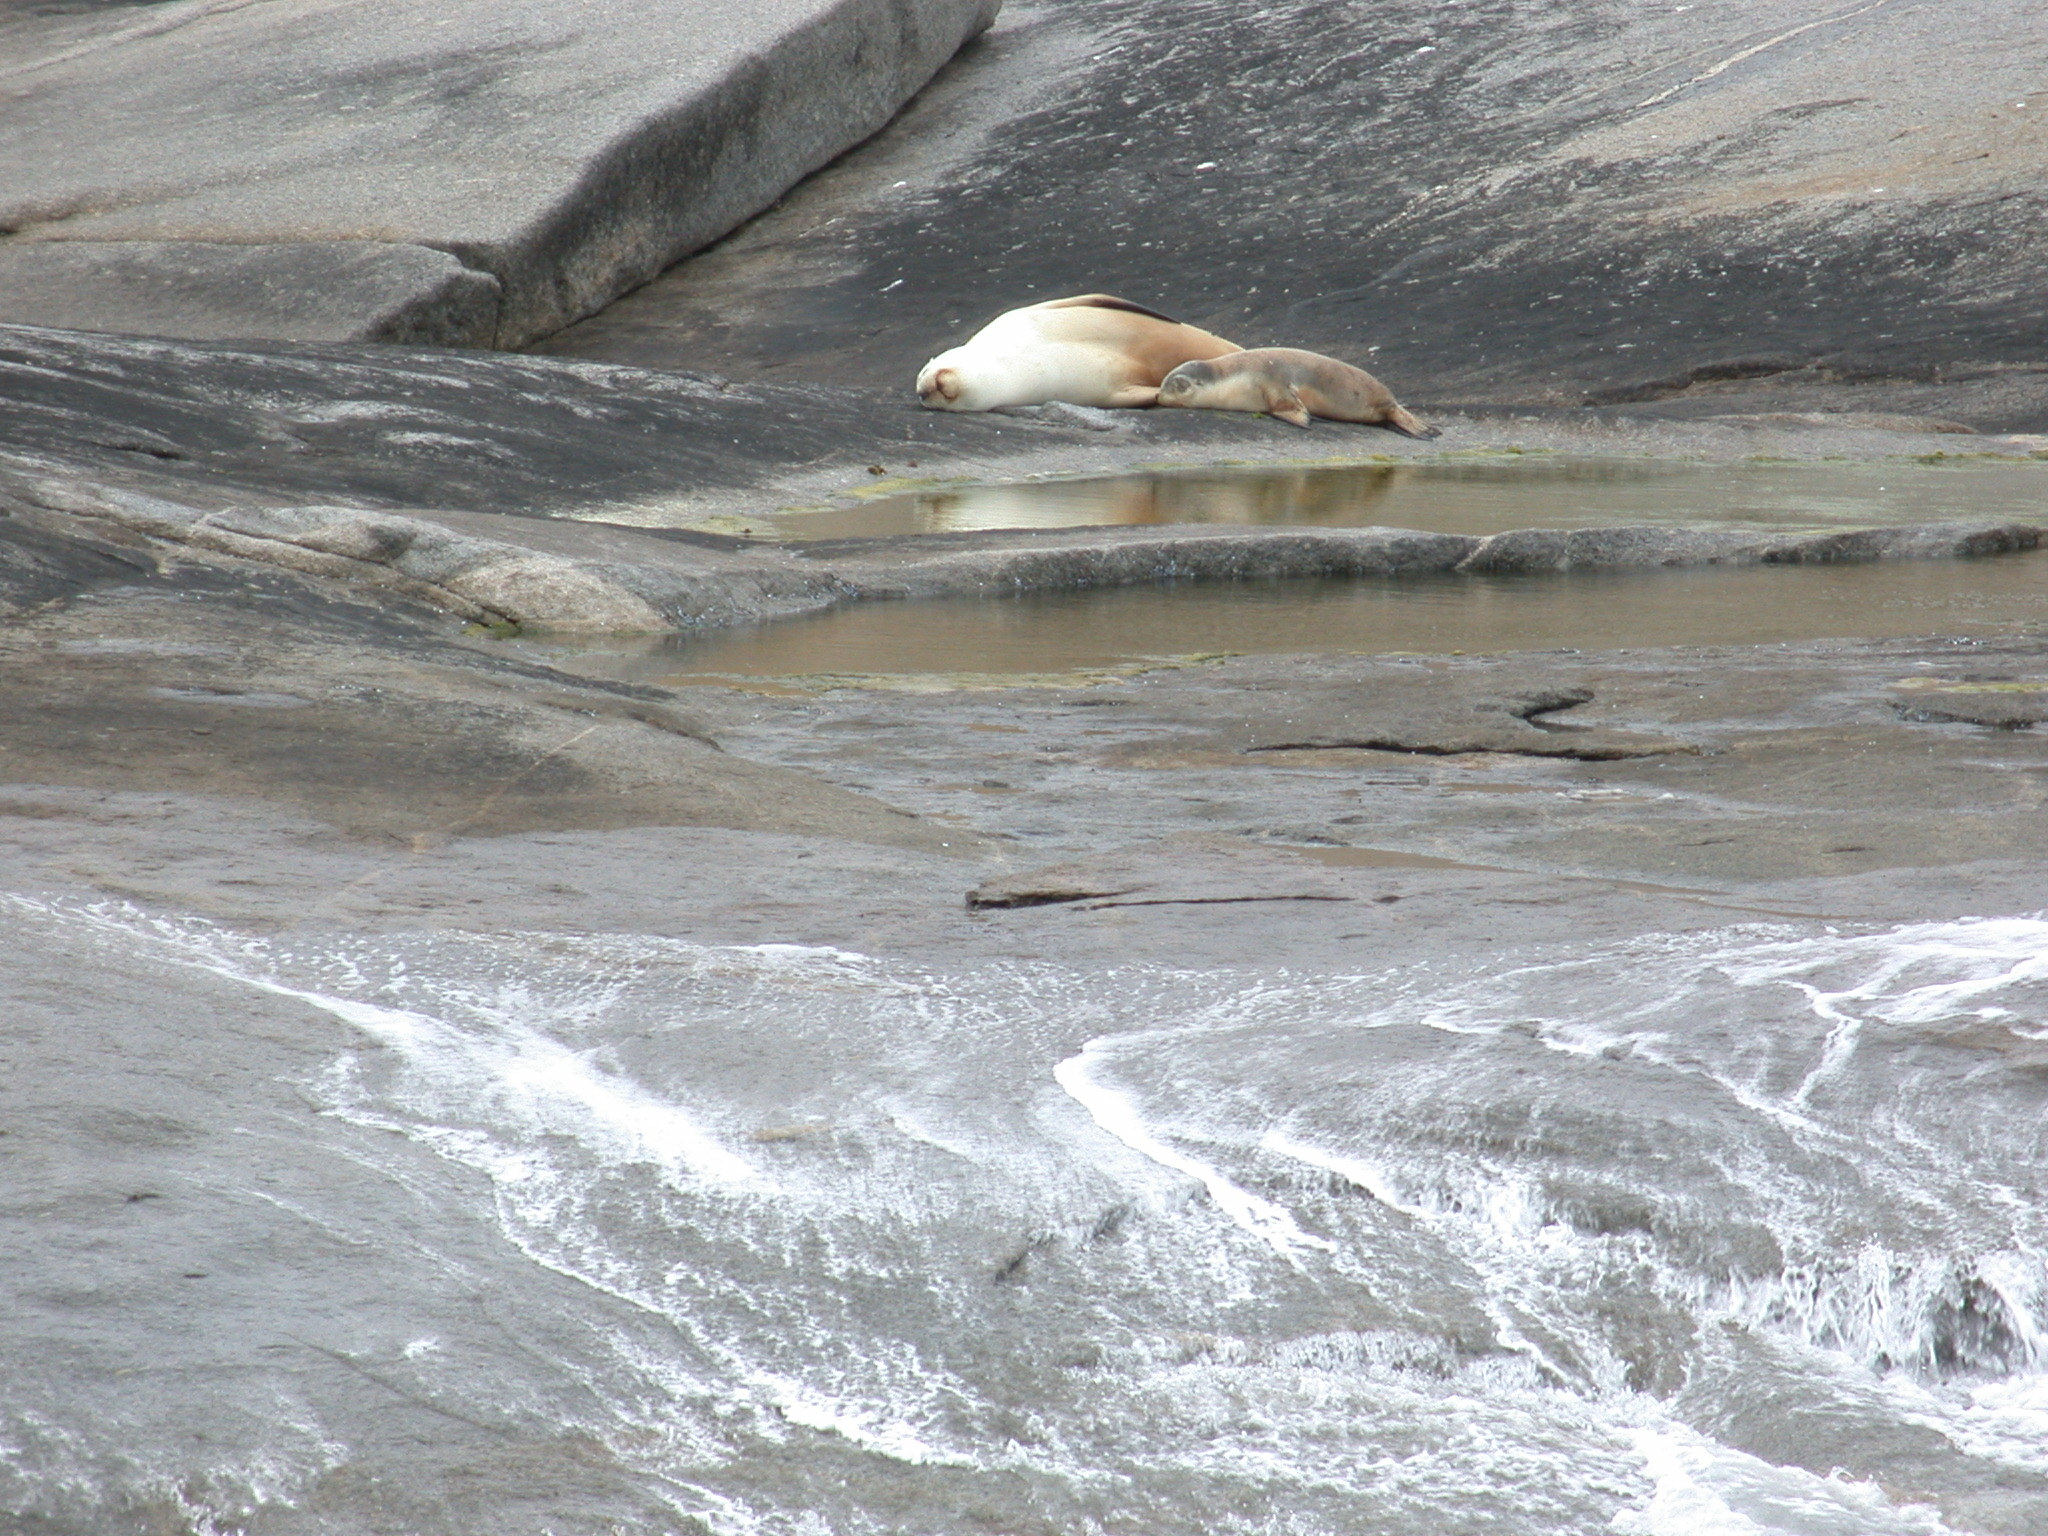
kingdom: Animalia
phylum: Chordata
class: Mammalia
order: Carnivora
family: Otariidae
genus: Neophoca
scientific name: Neophoca cinerea
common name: Australian sea lion
